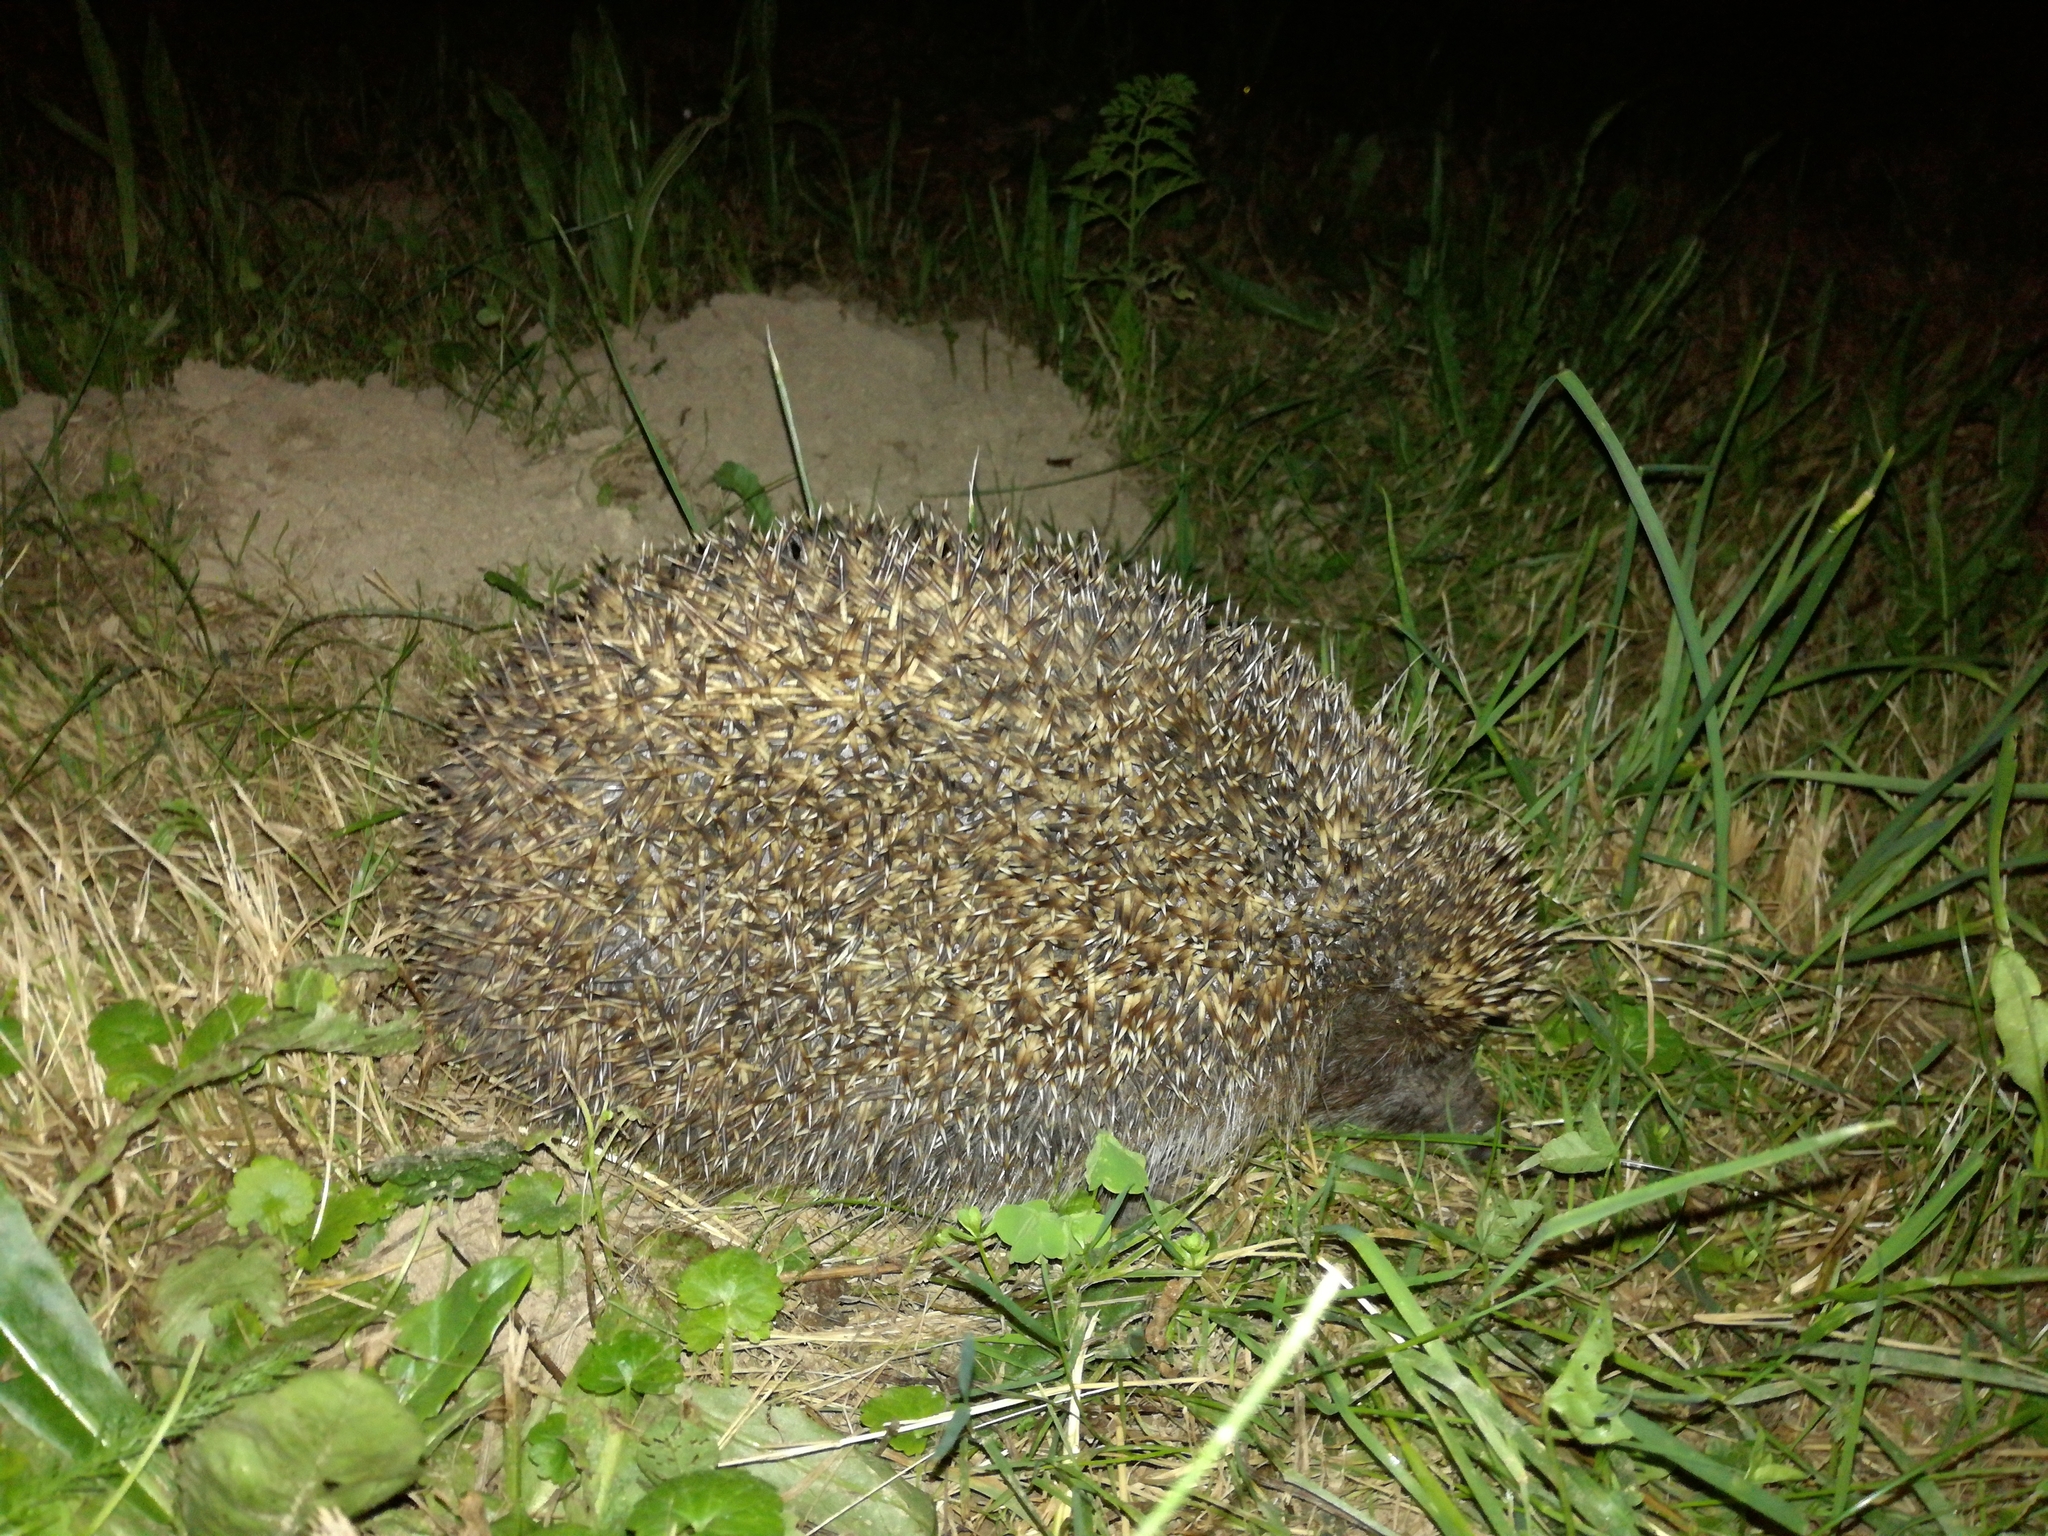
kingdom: Animalia
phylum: Chordata
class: Mammalia
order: Erinaceomorpha
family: Erinaceidae
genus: Erinaceus
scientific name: Erinaceus roumanicus
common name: Northern white-breasted hedgehog
